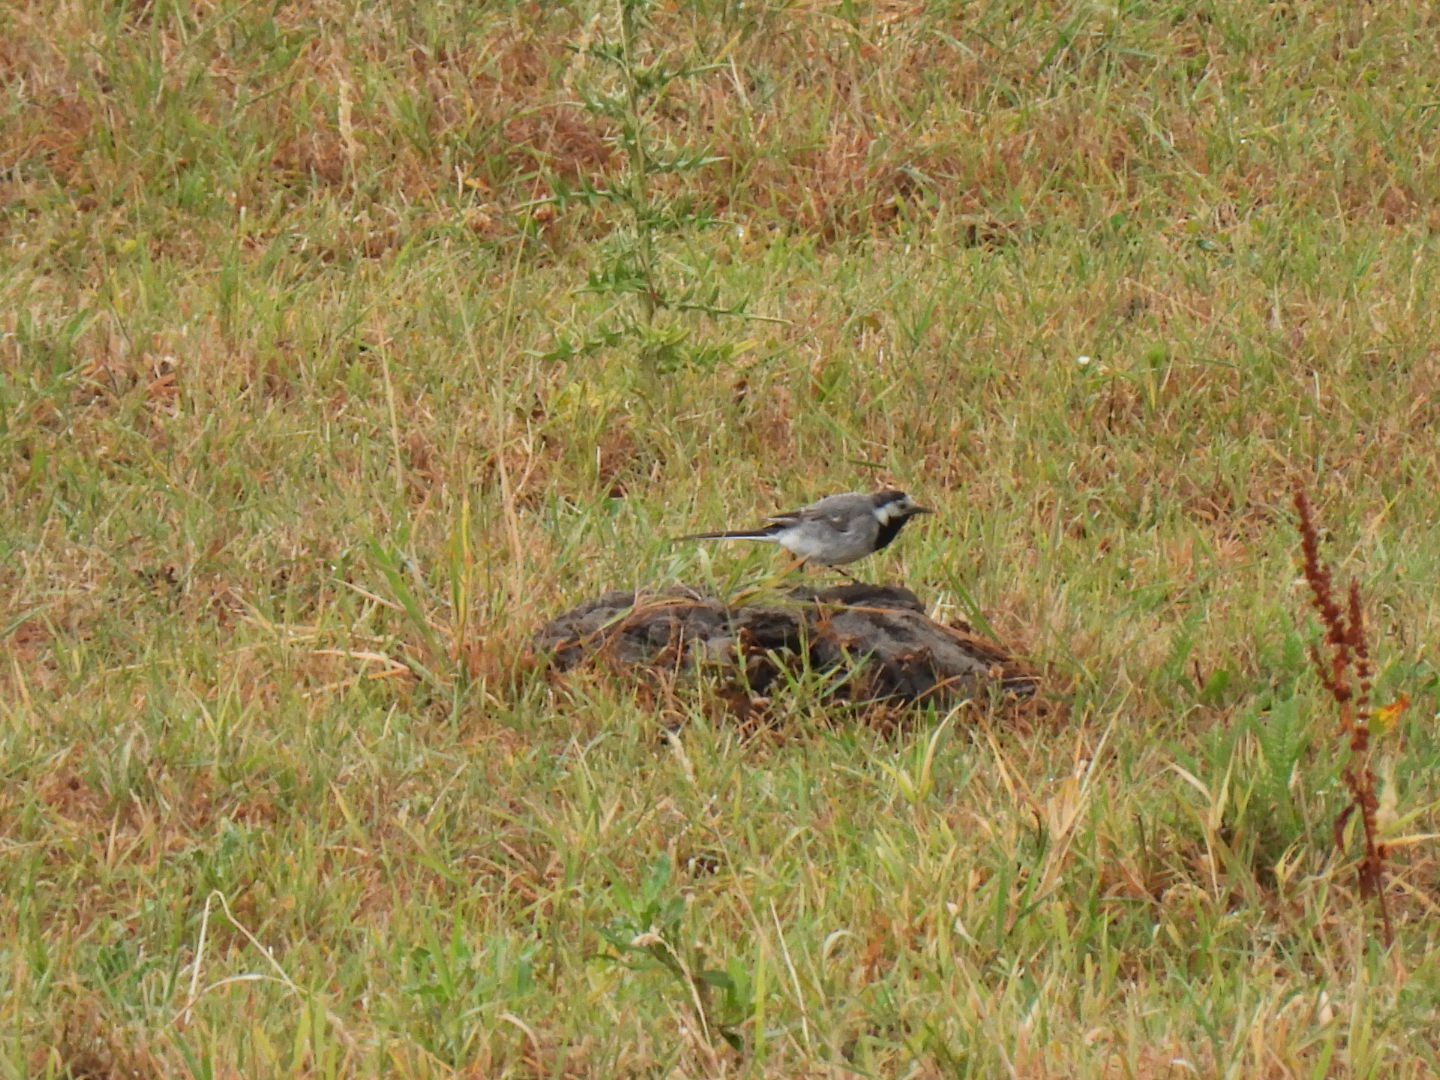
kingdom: Animalia
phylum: Chordata
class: Aves
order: Passeriformes
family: Motacillidae
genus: Motacilla
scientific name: Motacilla alba
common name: White wagtail
